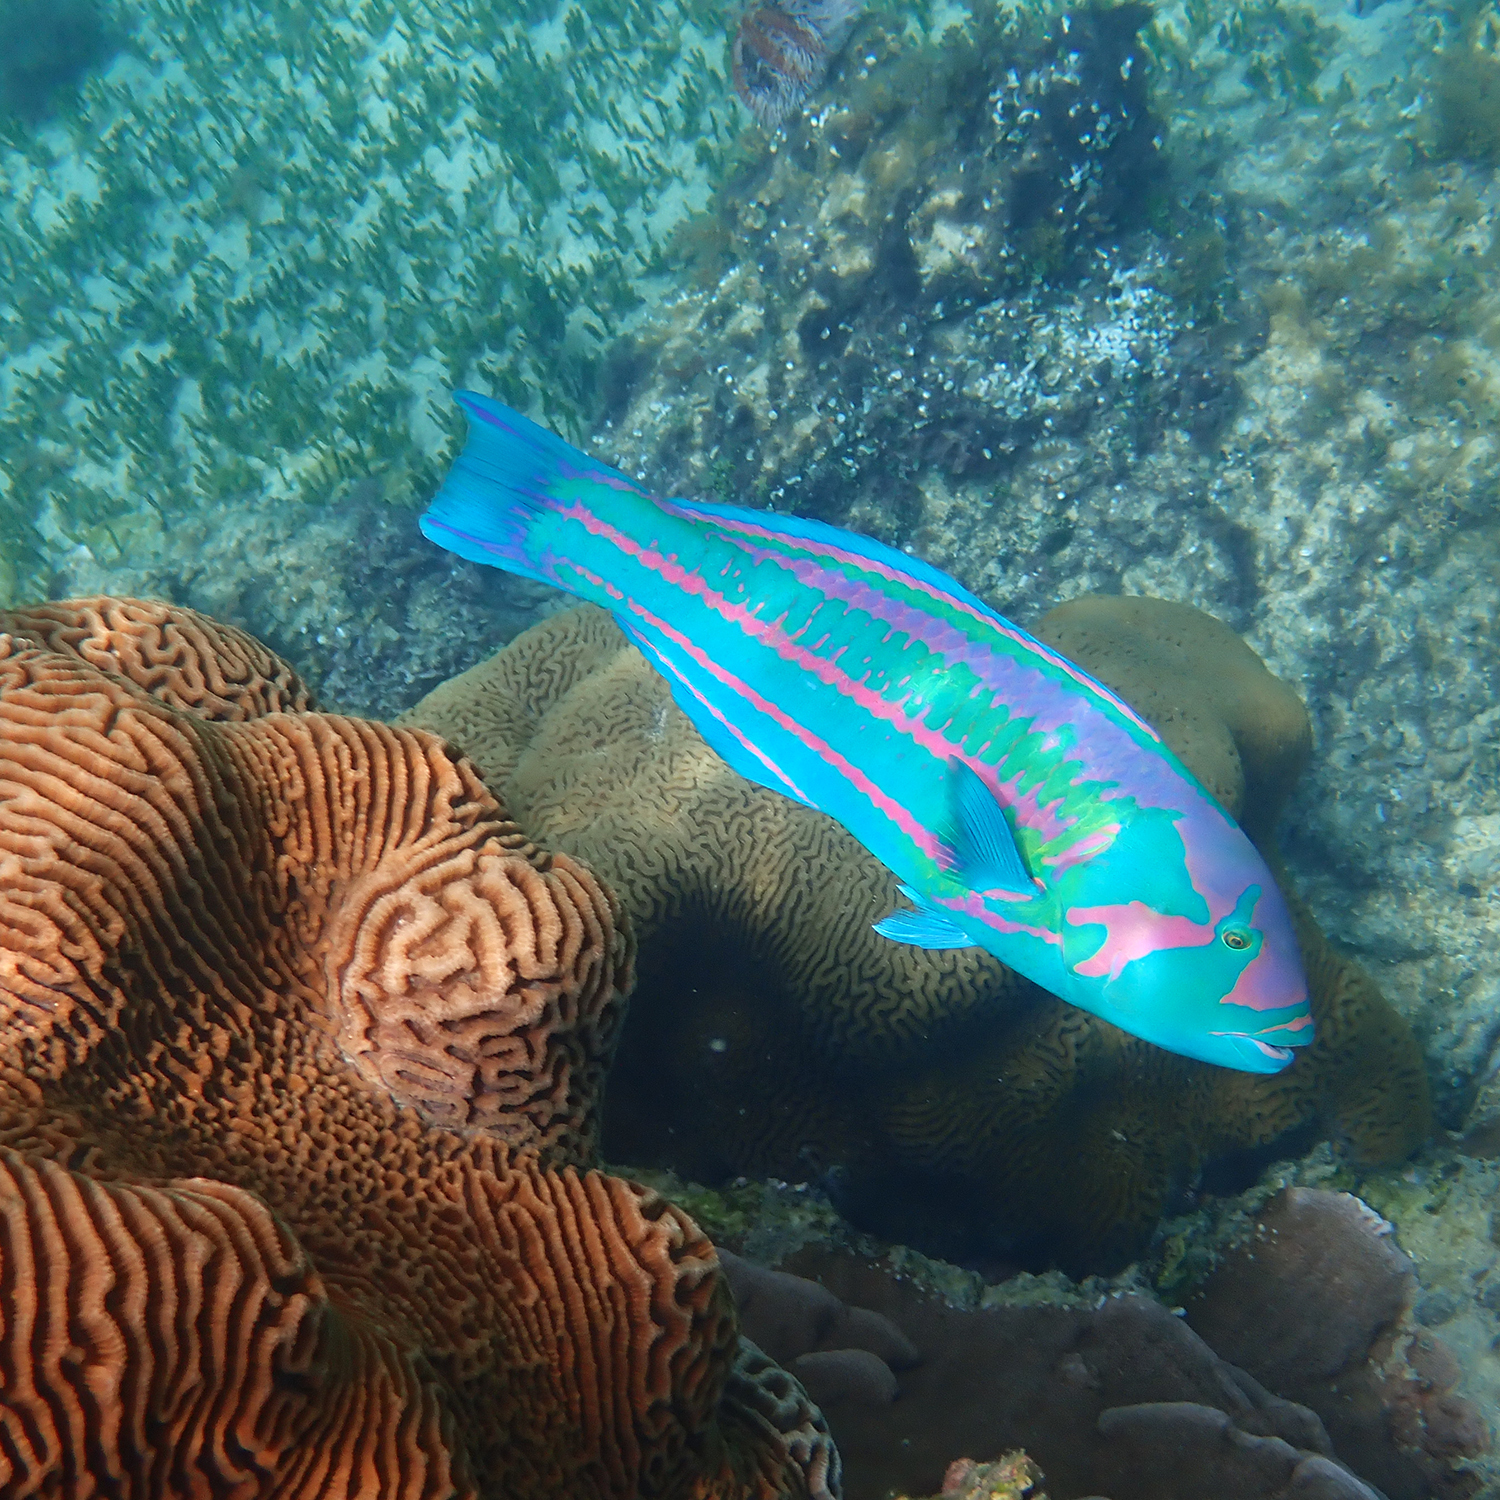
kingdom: Animalia
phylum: Chordata
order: Perciformes
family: Labridae
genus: Thalassoma
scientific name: Thalassoma purpureum
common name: Parrotfish
